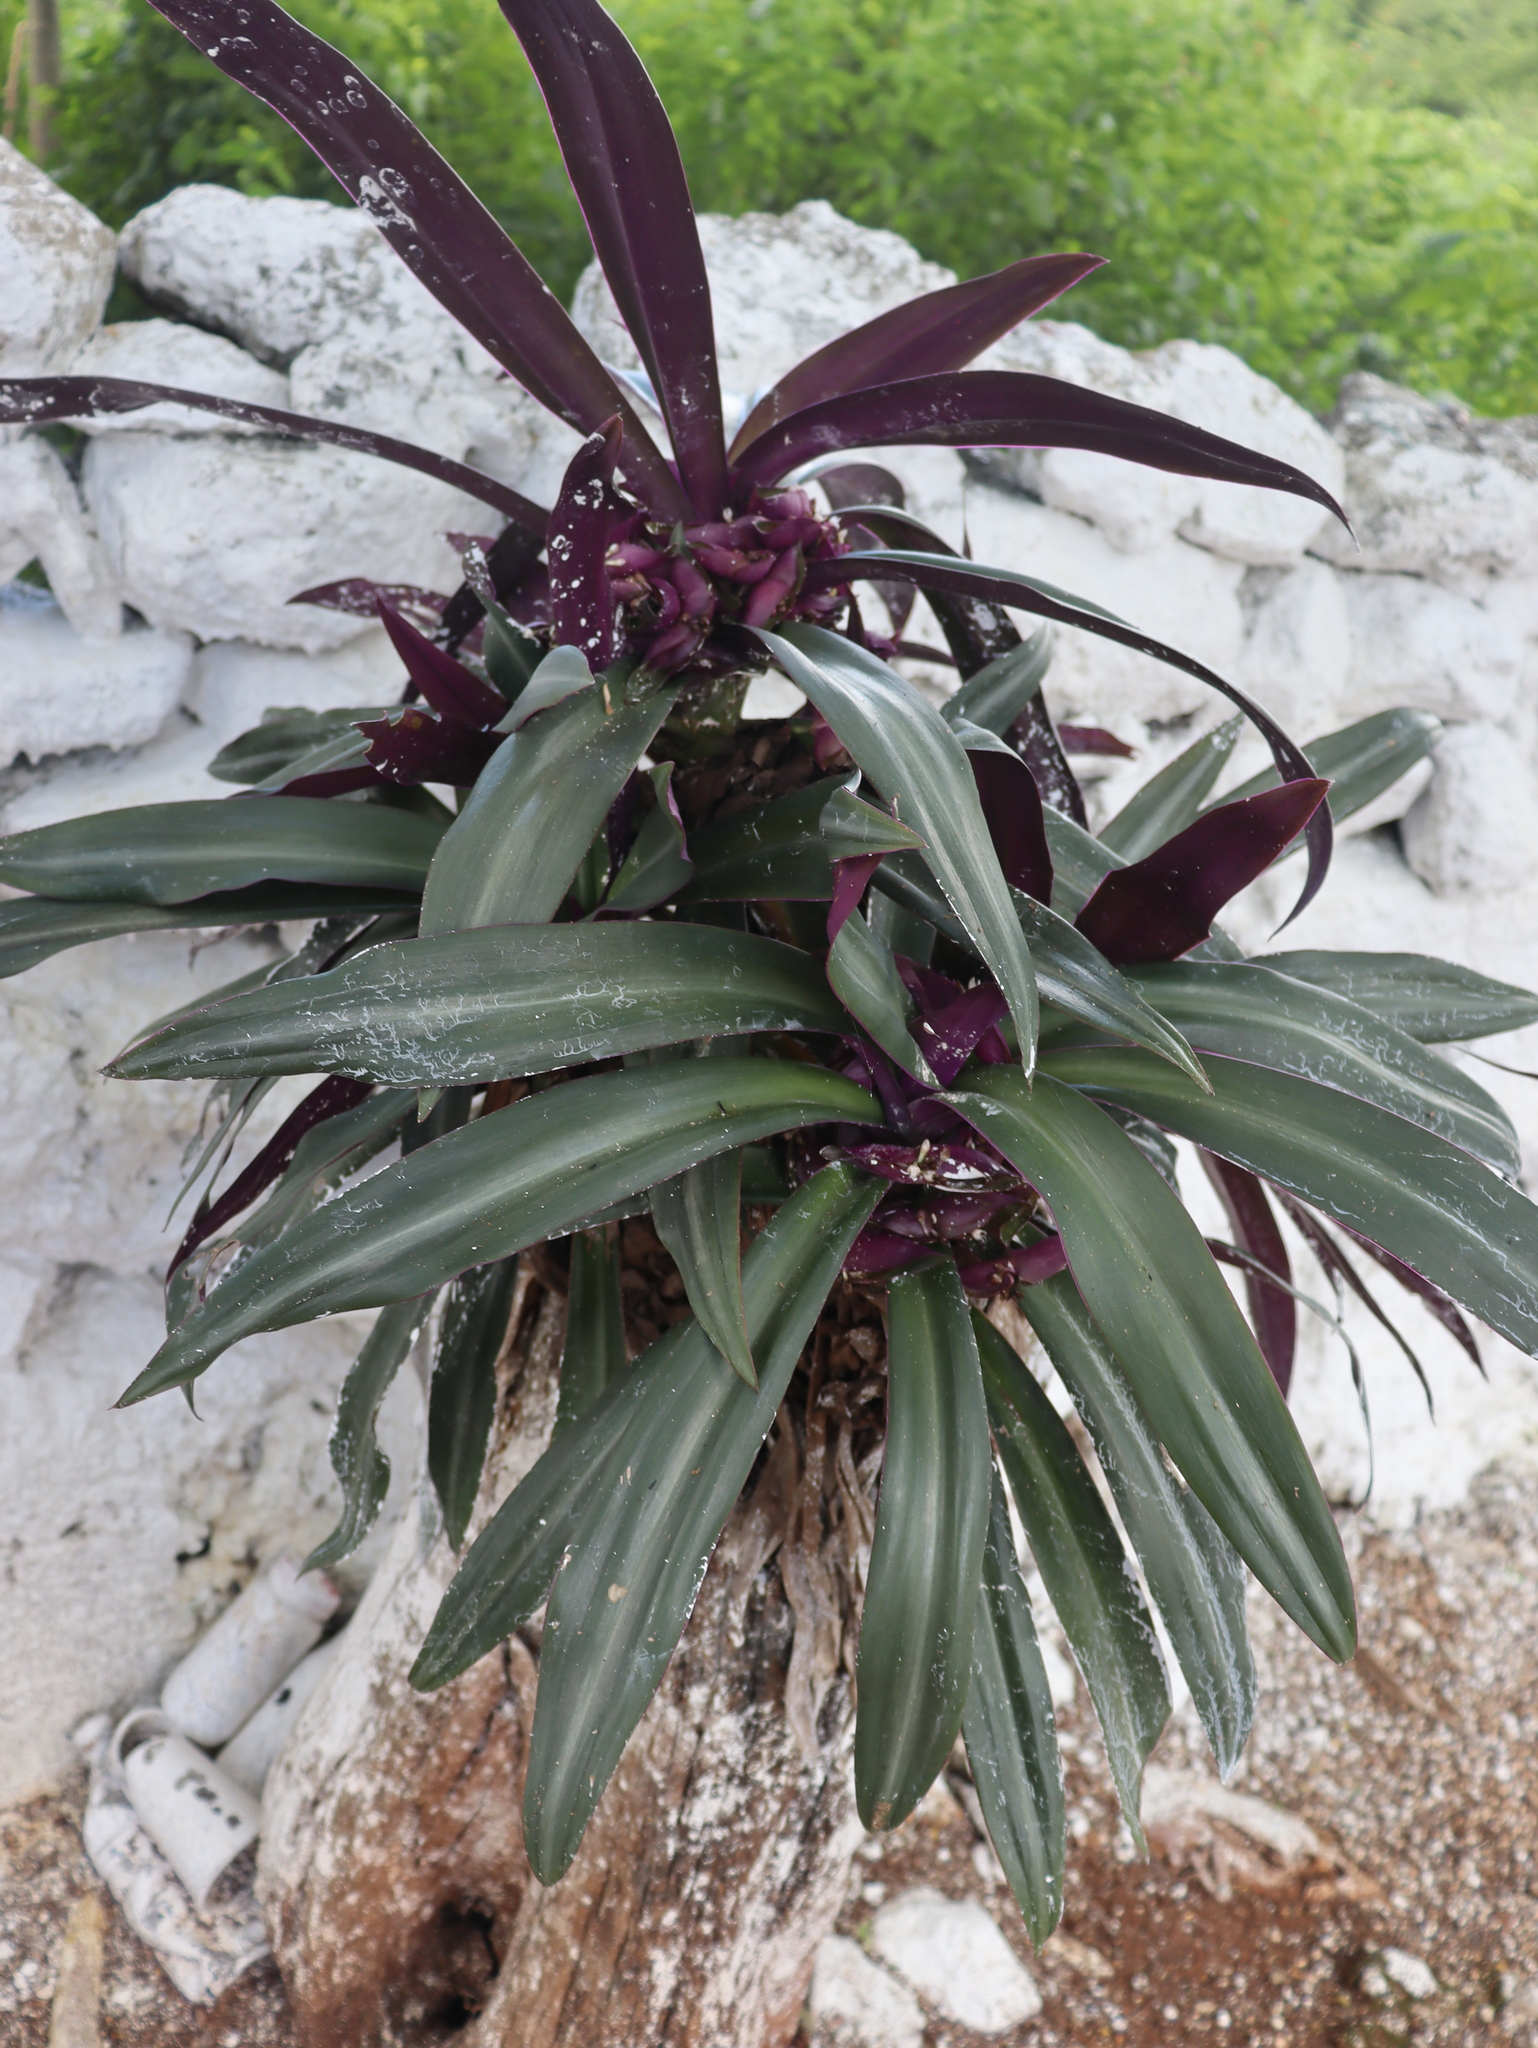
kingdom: Plantae
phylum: Tracheophyta
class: Liliopsida
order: Commelinales
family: Commelinaceae
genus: Tradescantia
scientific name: Tradescantia spathacea
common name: Boatlily
